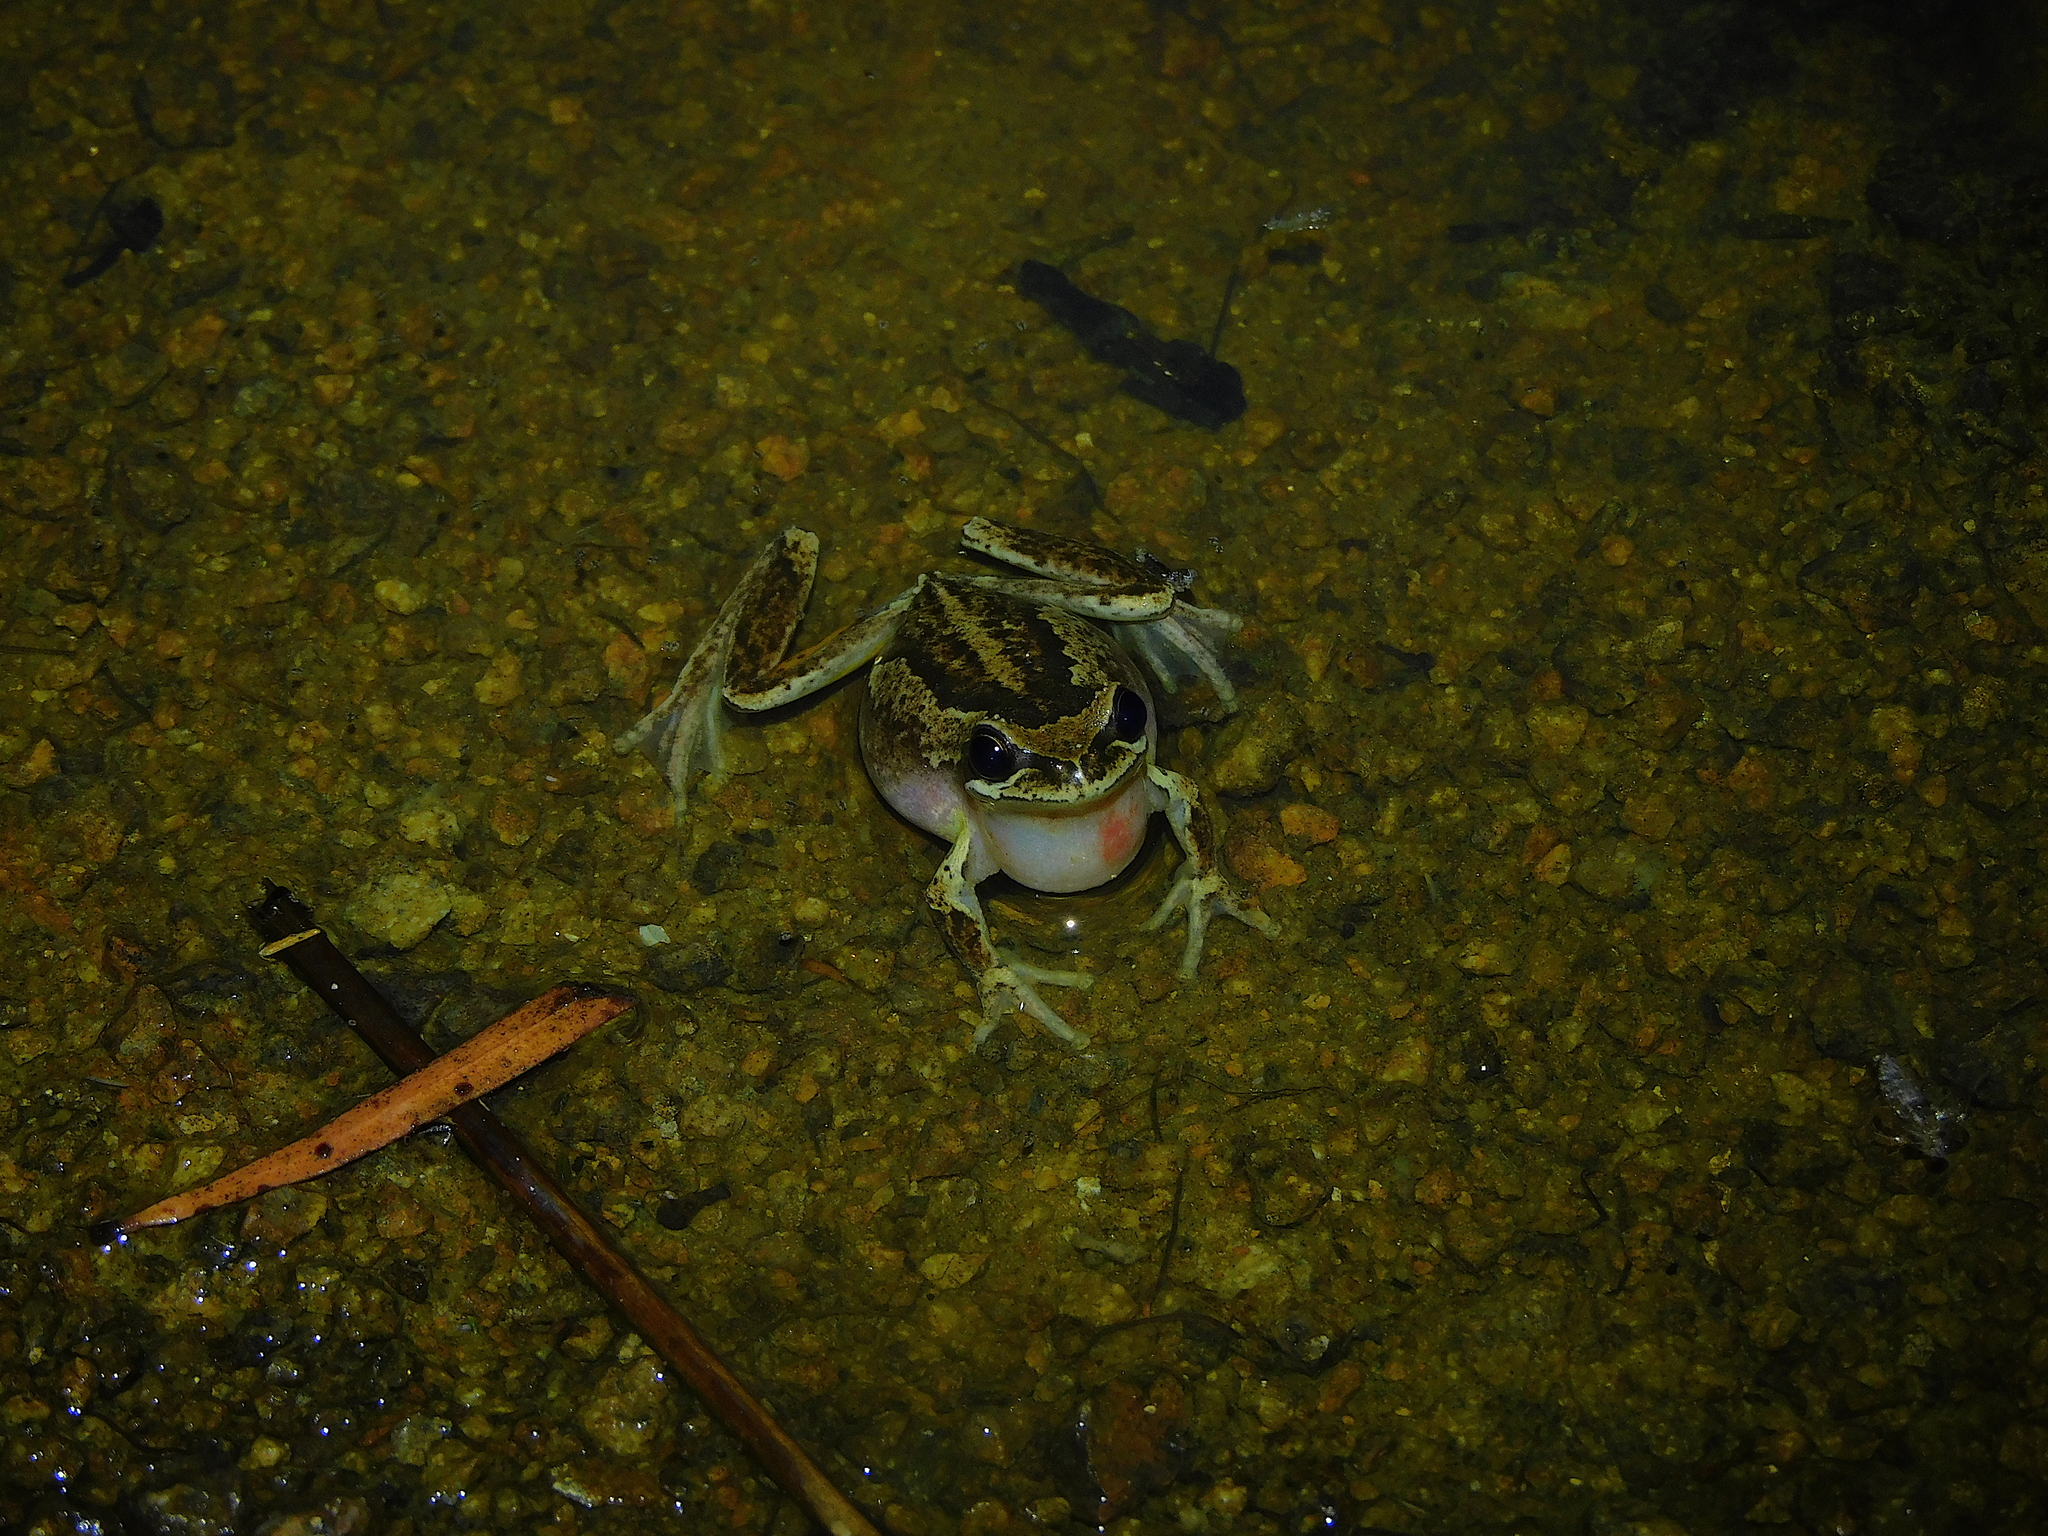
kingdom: Animalia
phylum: Chordata
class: Amphibia
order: Anura
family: Pelodryadidae
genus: Litoria
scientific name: Litoria ewingii
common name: Southern brown tree frog
